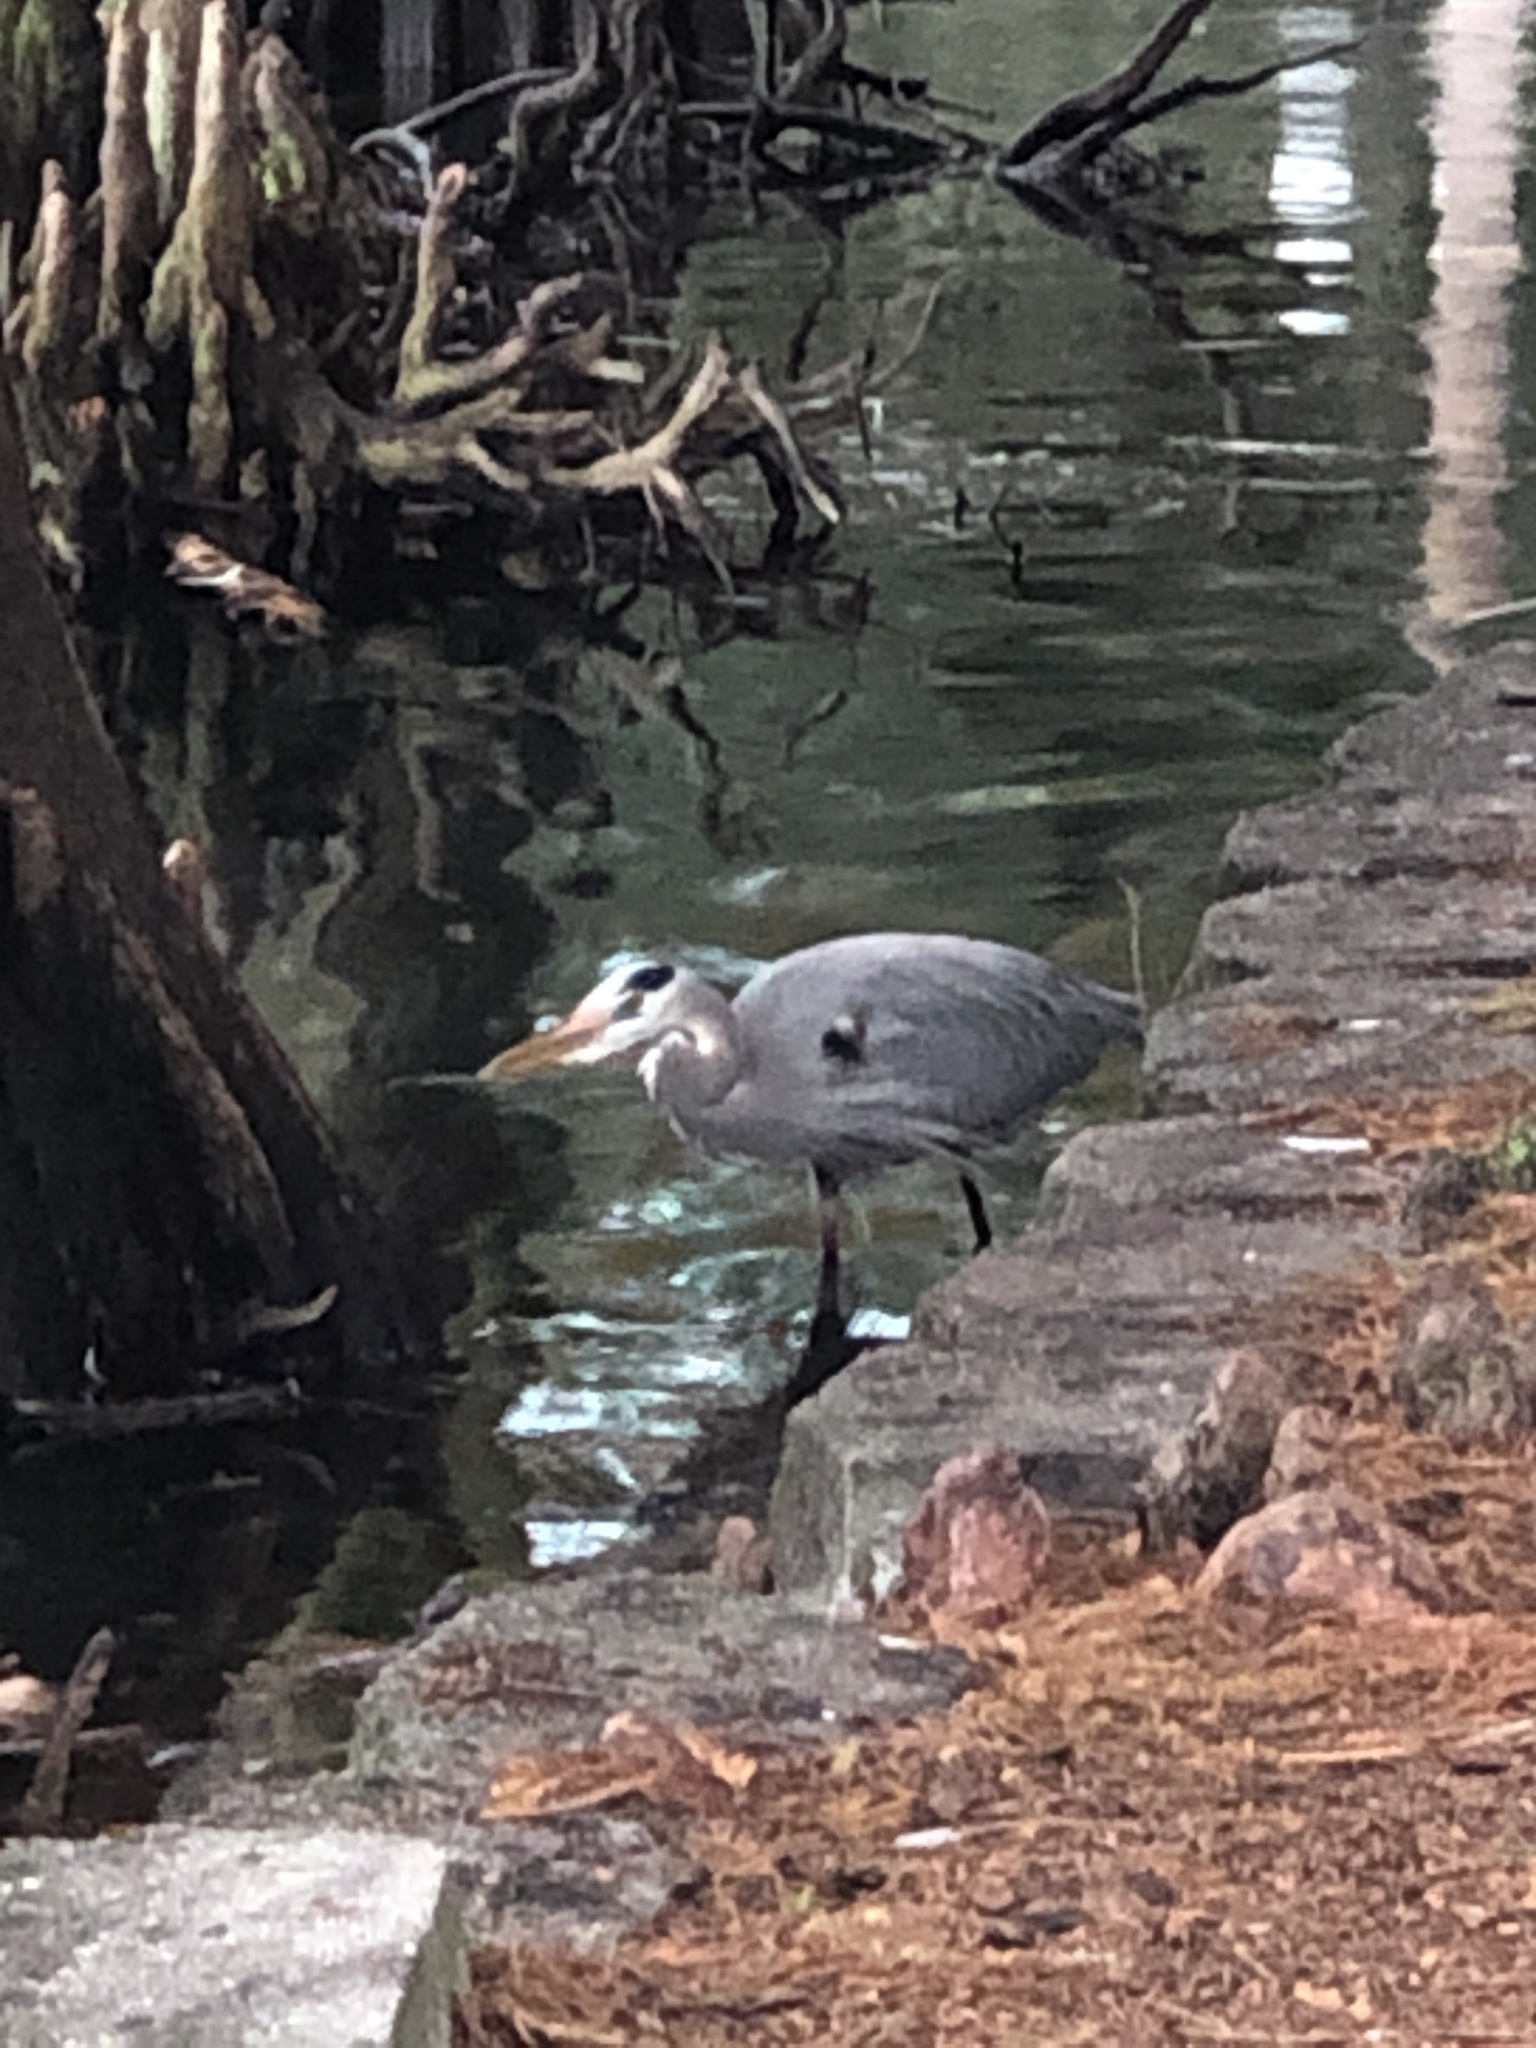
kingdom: Animalia
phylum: Chordata
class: Aves
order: Pelecaniformes
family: Ardeidae
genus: Ardea
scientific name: Ardea herodias
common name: Great blue heron
